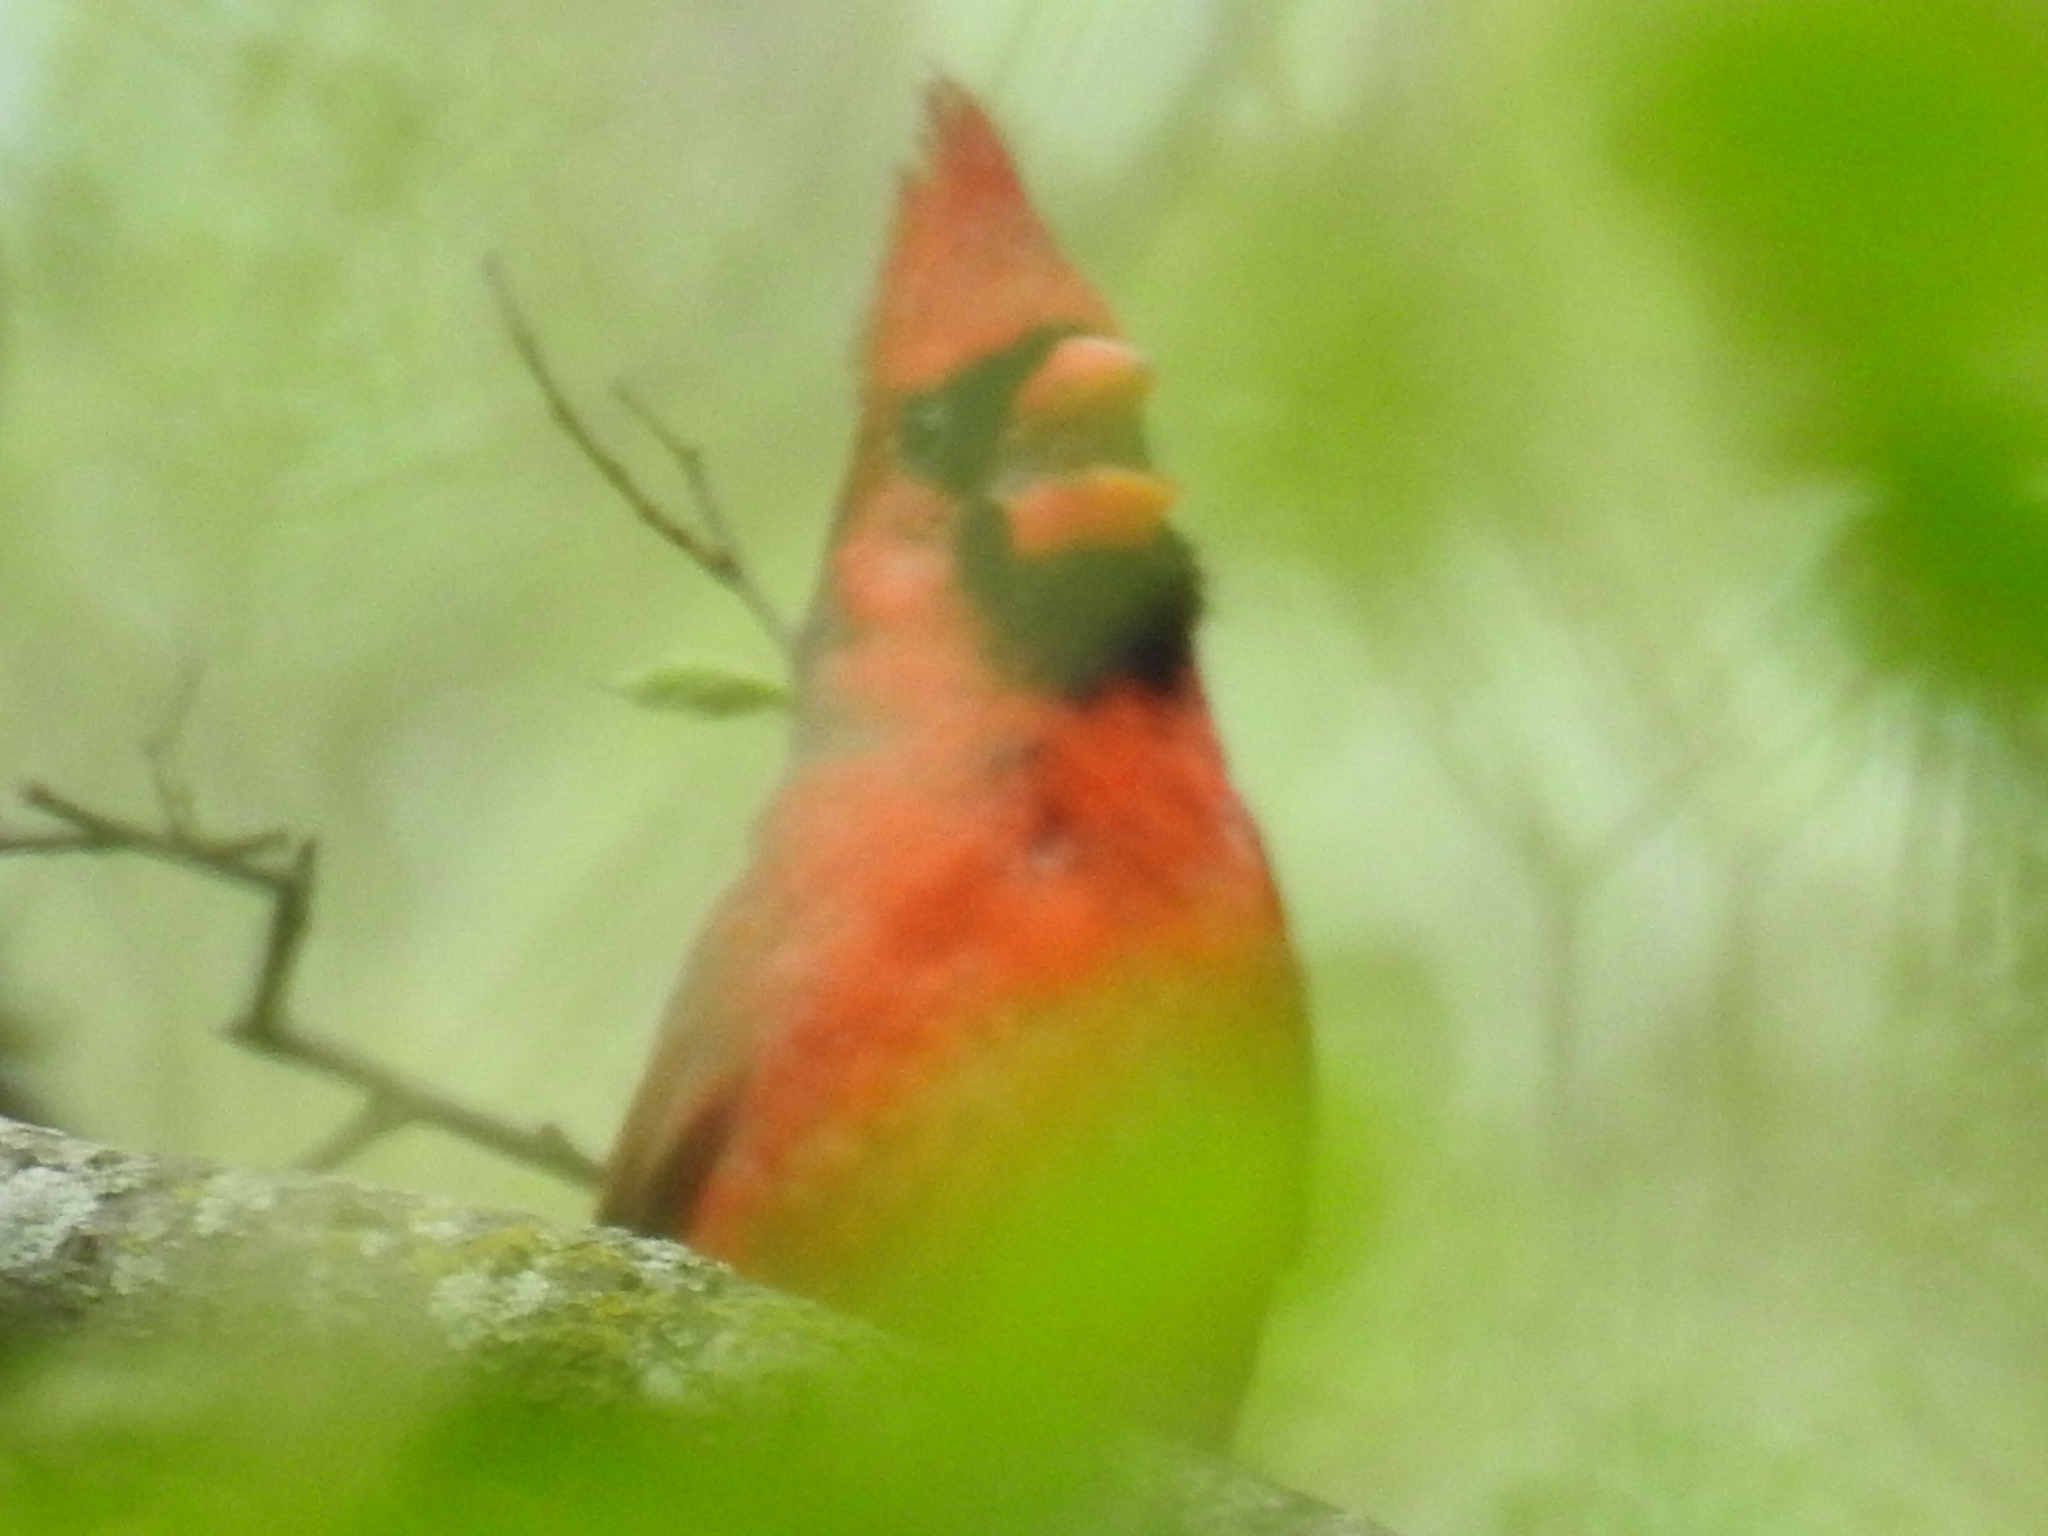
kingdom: Animalia
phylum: Chordata
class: Aves
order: Passeriformes
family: Cardinalidae
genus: Cardinalis
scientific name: Cardinalis cardinalis
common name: Northern cardinal
